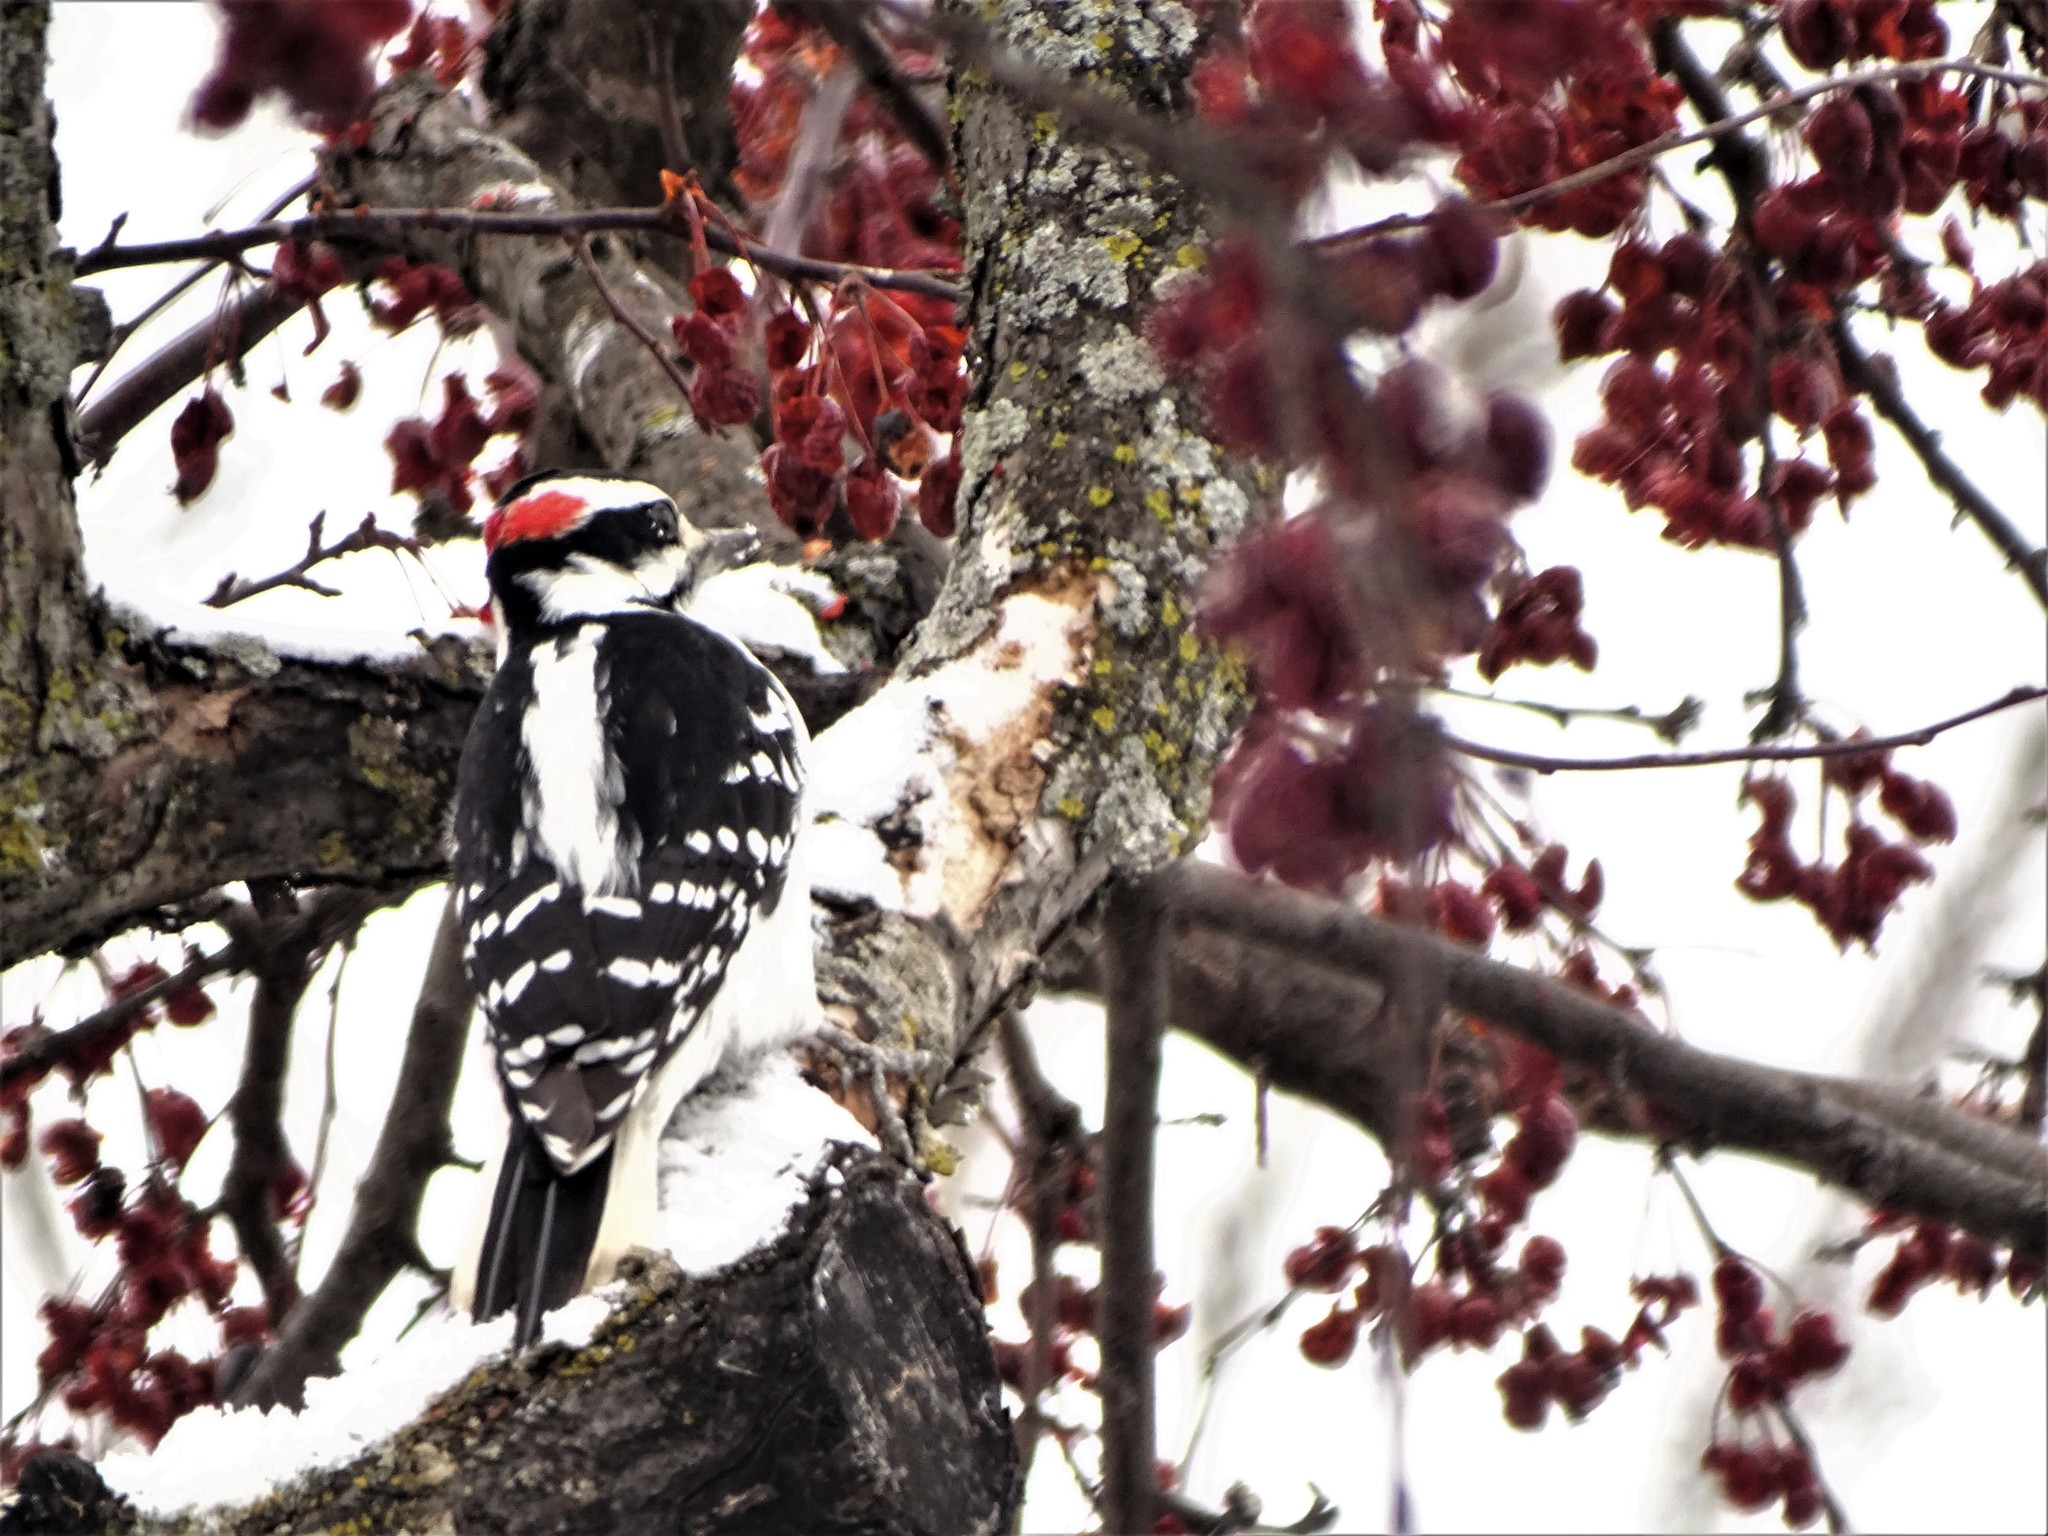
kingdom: Animalia
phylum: Chordata
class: Aves
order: Piciformes
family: Picidae
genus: Leuconotopicus
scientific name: Leuconotopicus villosus
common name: Hairy woodpecker
